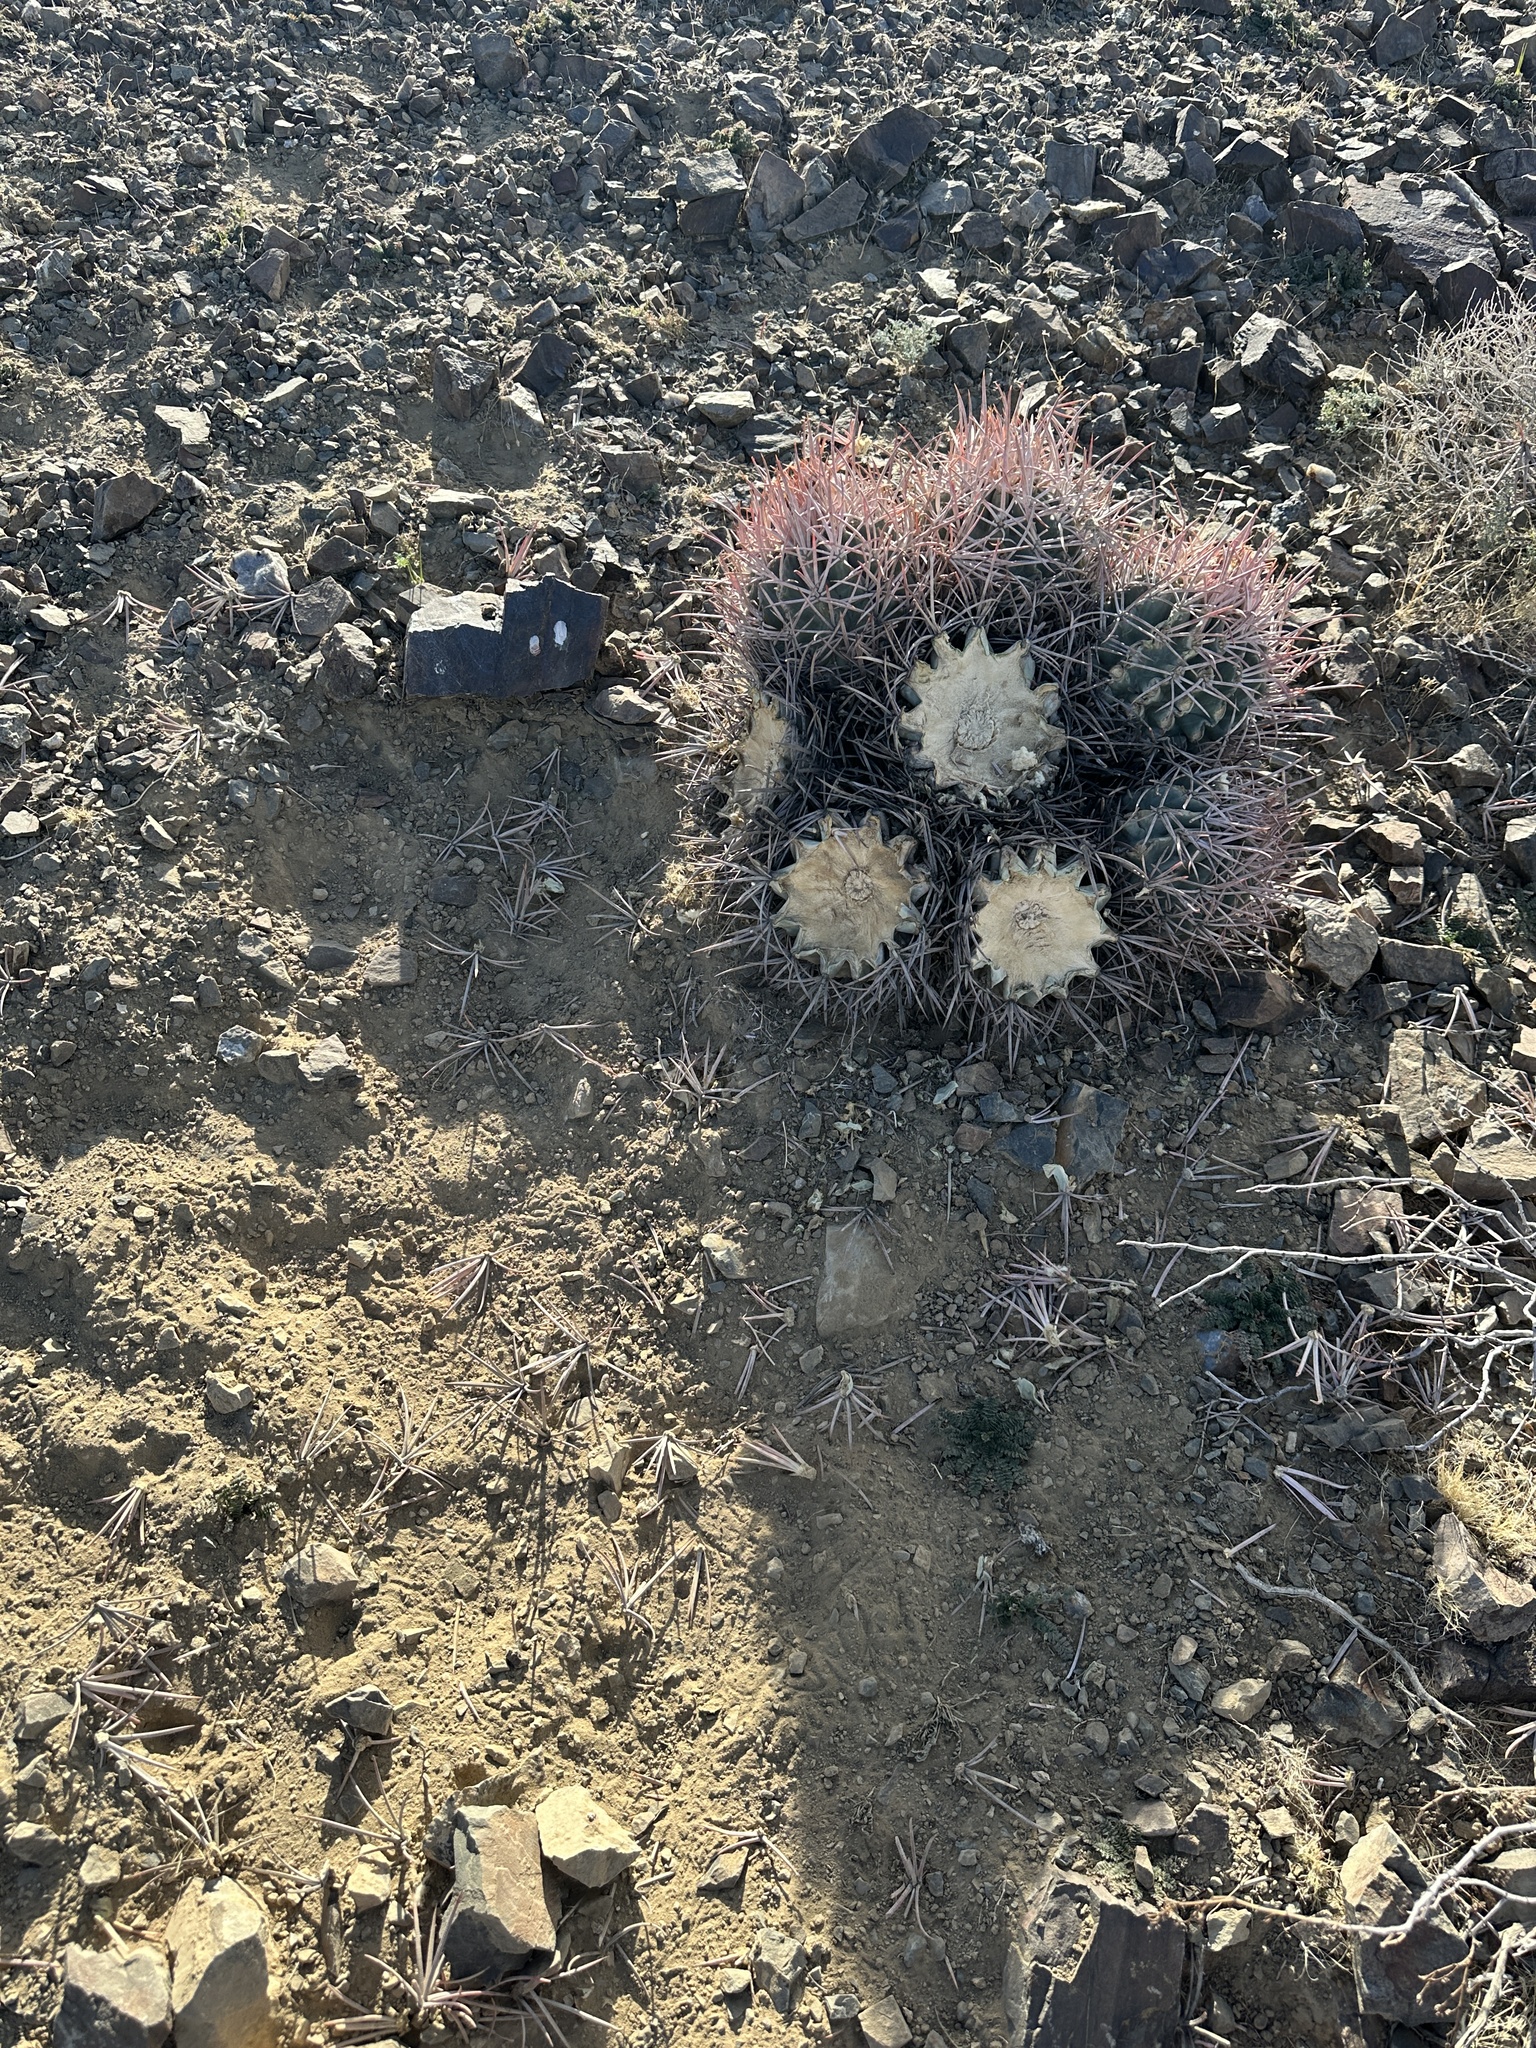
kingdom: Plantae
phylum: Tracheophyta
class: Magnoliopsida
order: Caryophyllales
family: Cactaceae
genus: Echinocactus
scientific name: Echinocactus polycephalus
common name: Cottontop cactus
